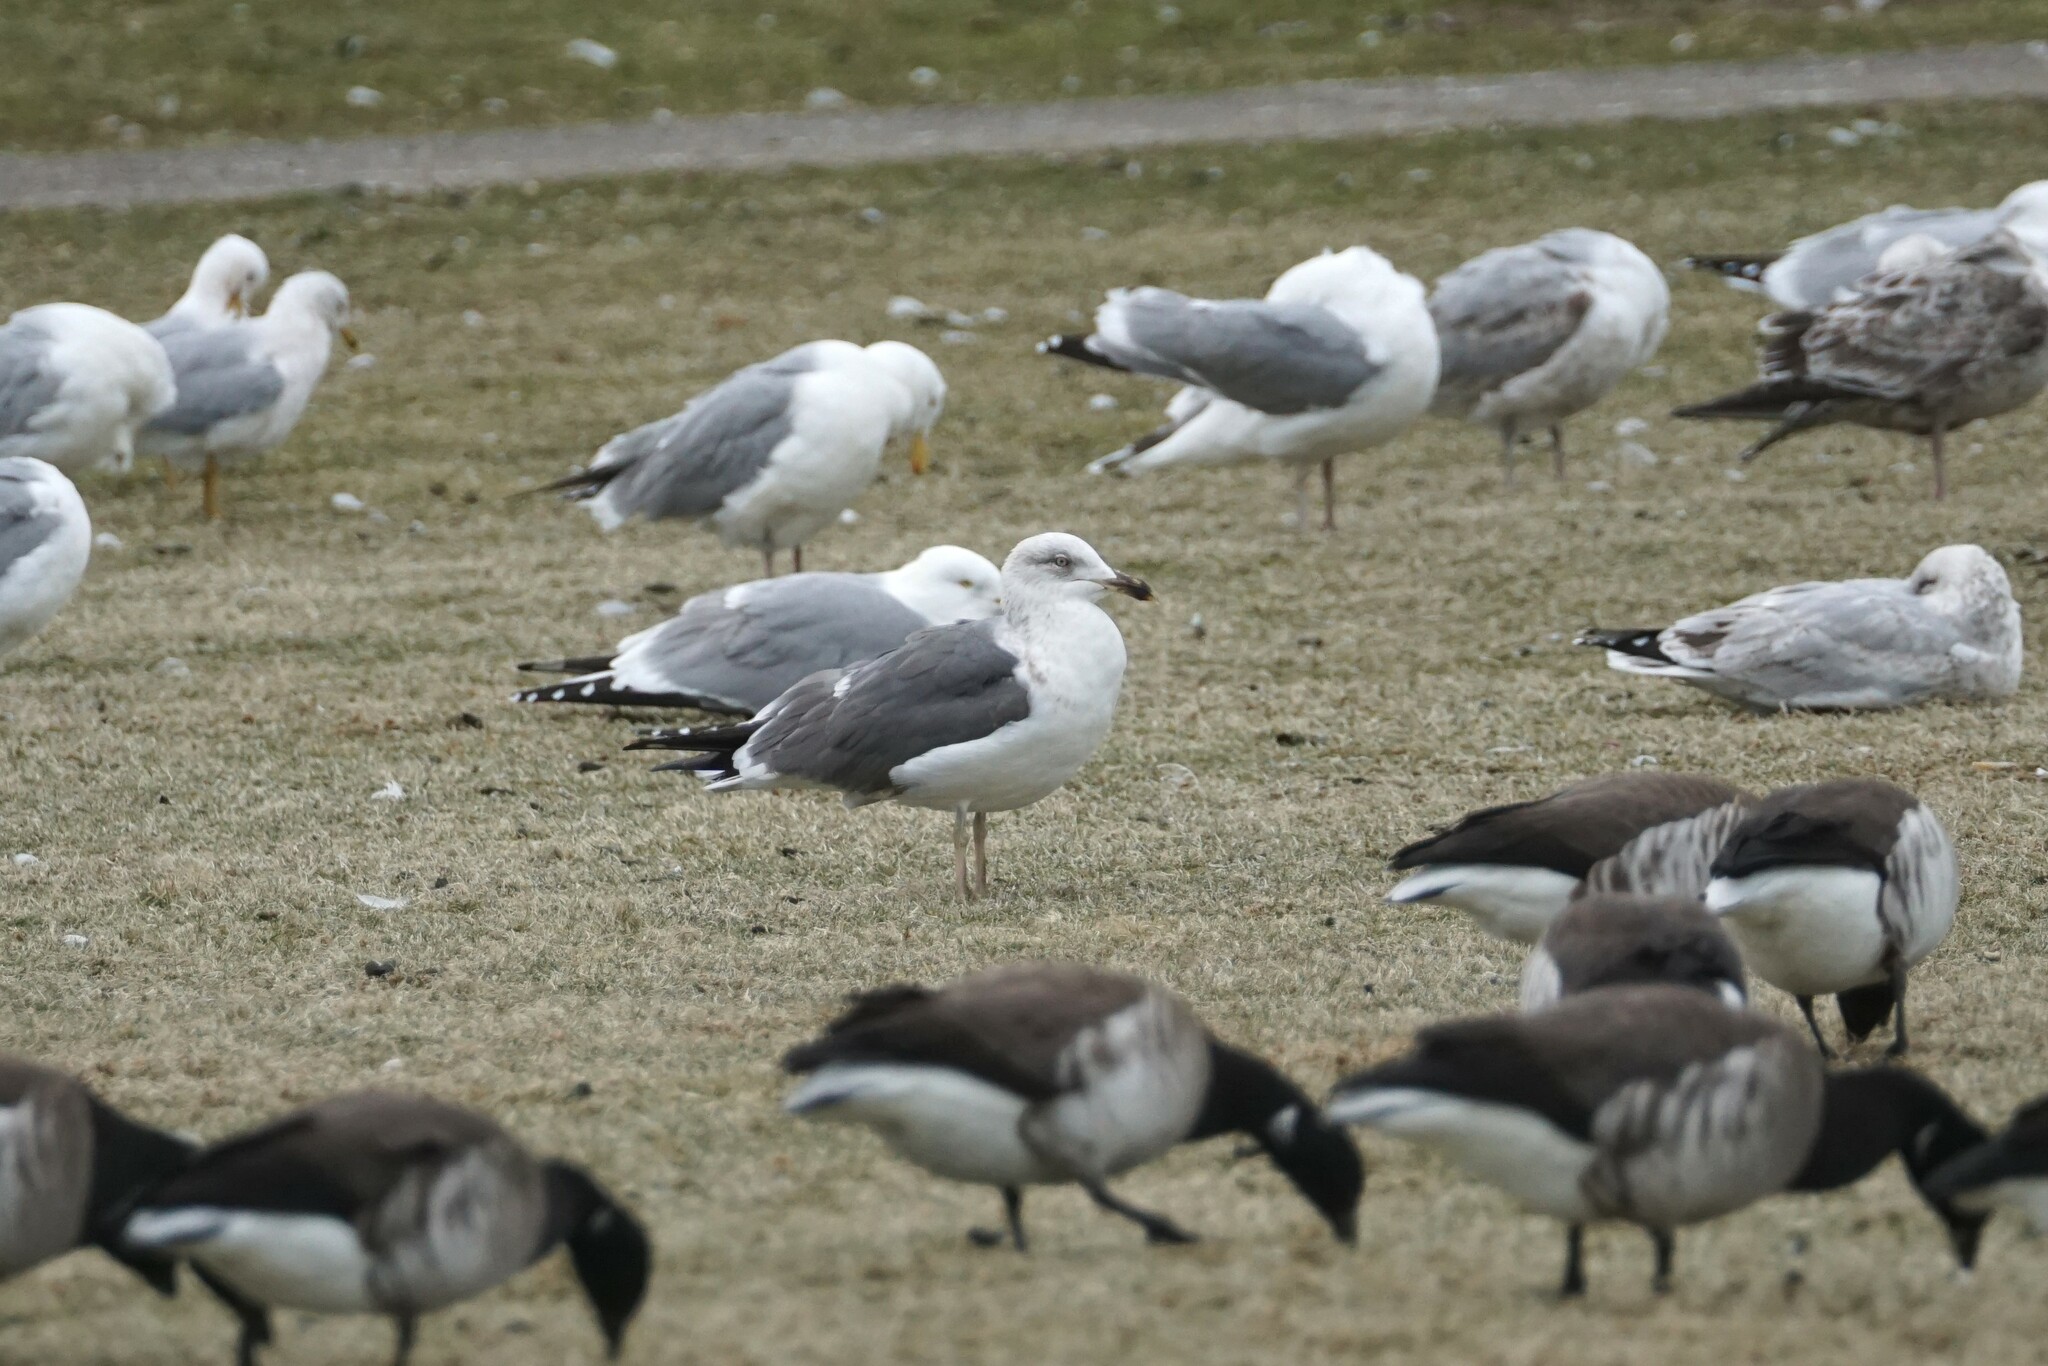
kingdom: Animalia
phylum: Chordata
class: Aves
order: Charadriiformes
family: Laridae
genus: Larus
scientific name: Larus fuscus
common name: Lesser black-backed gull
